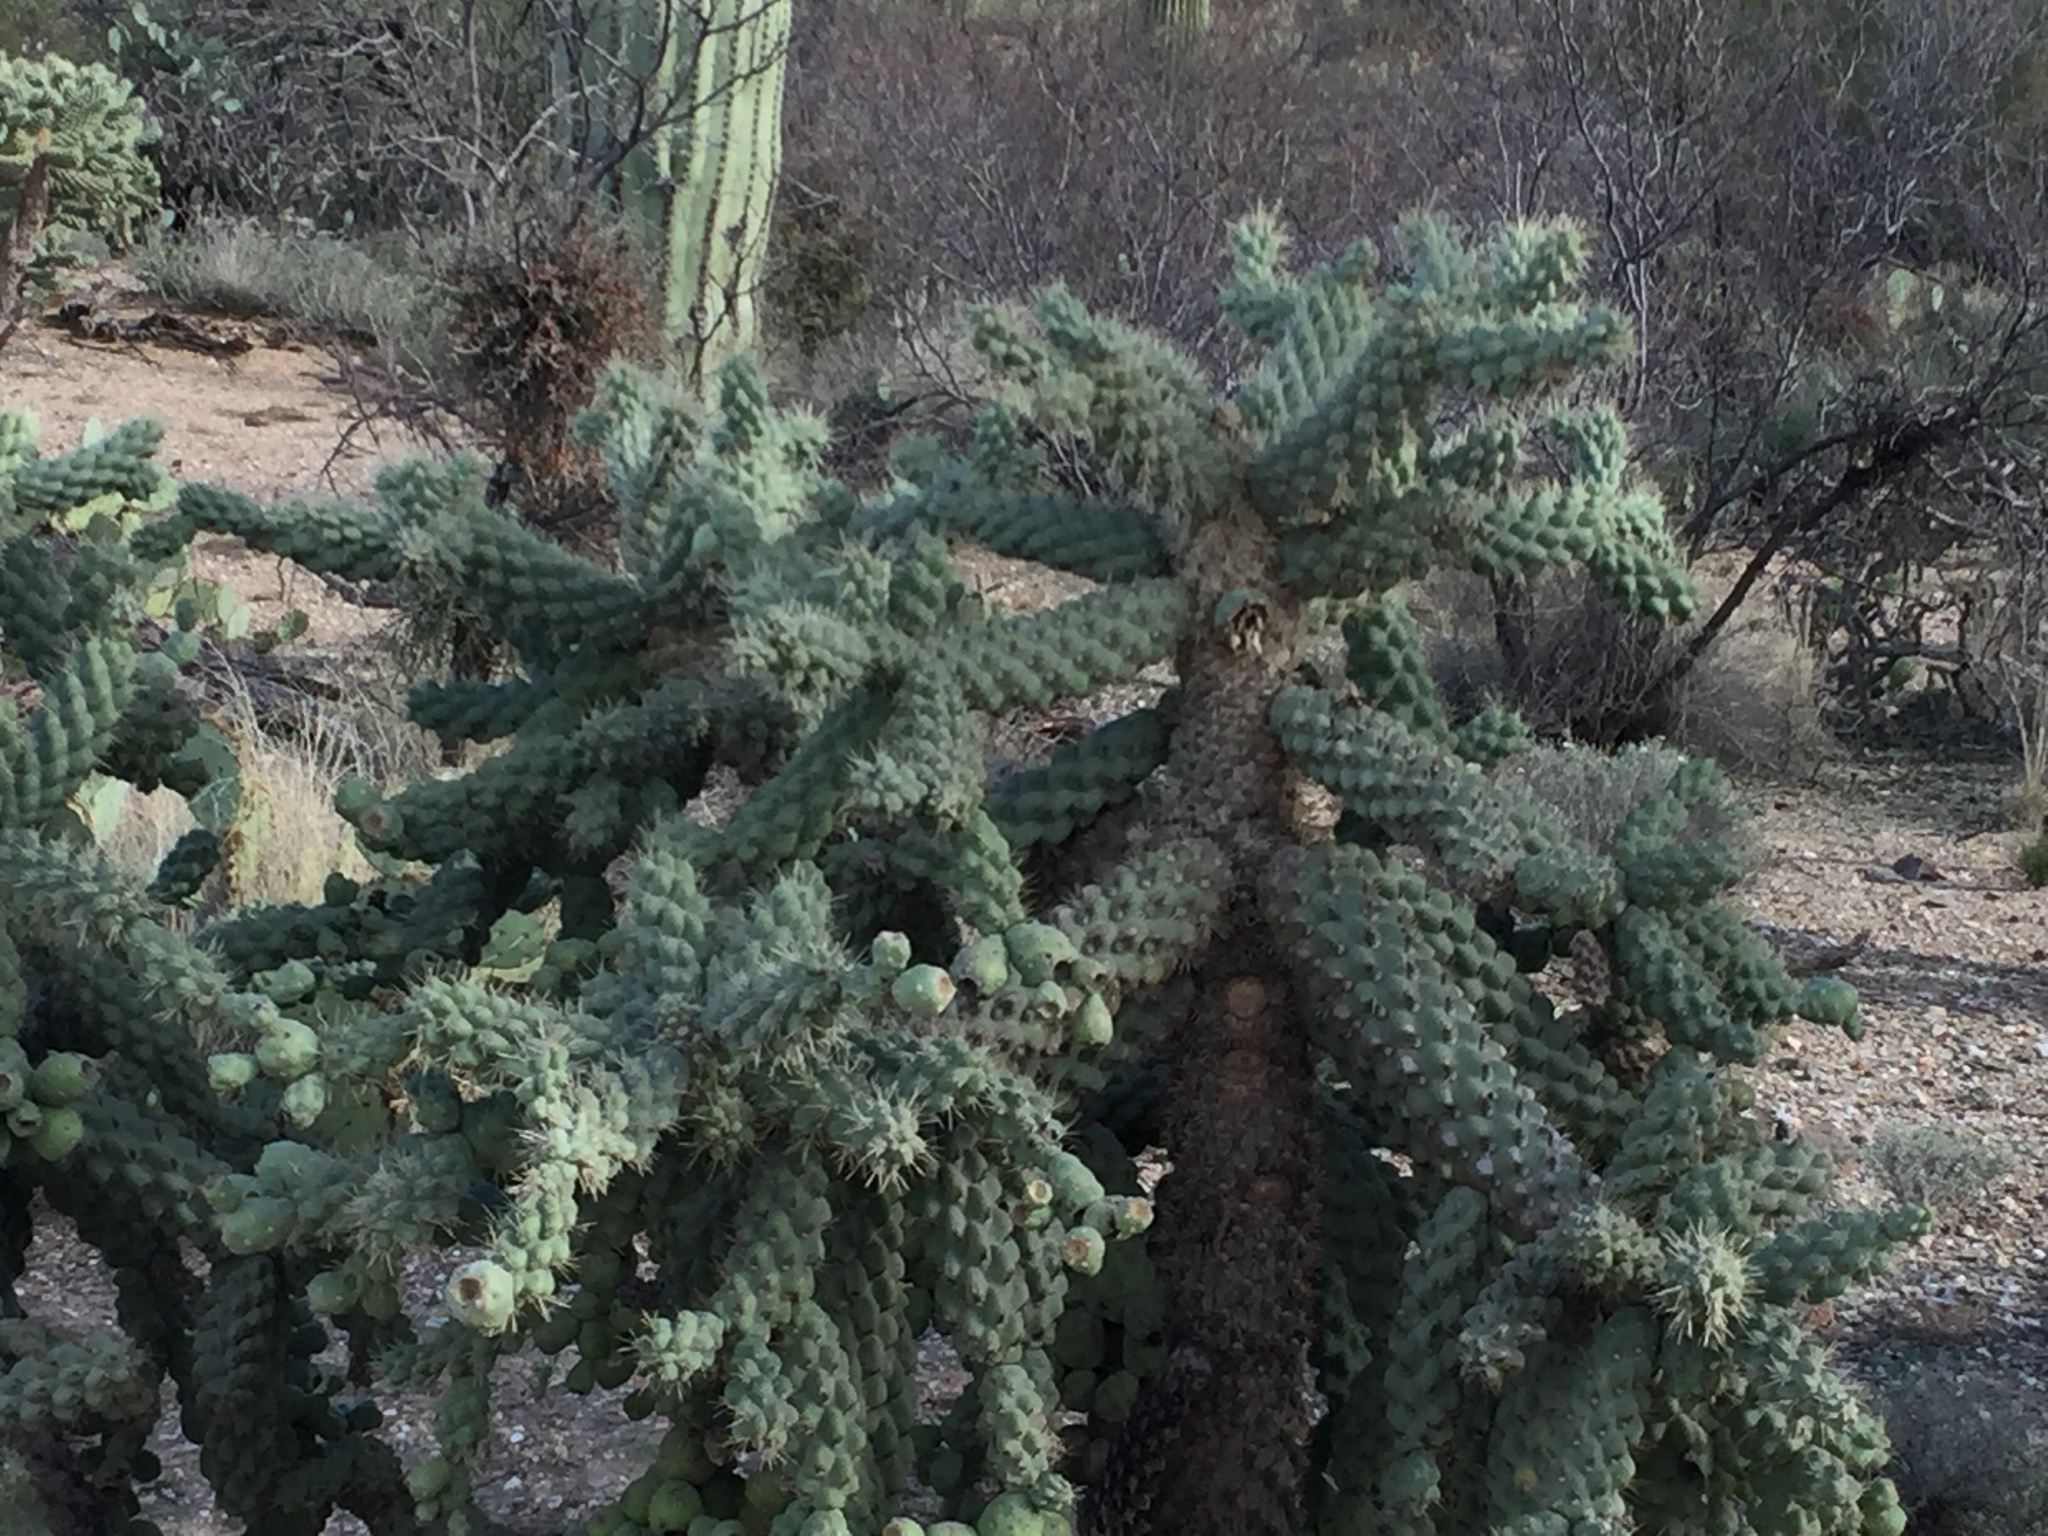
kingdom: Plantae
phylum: Tracheophyta
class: Magnoliopsida
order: Caryophyllales
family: Cactaceae
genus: Cylindropuntia
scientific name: Cylindropuntia fulgida
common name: Jumping cholla
